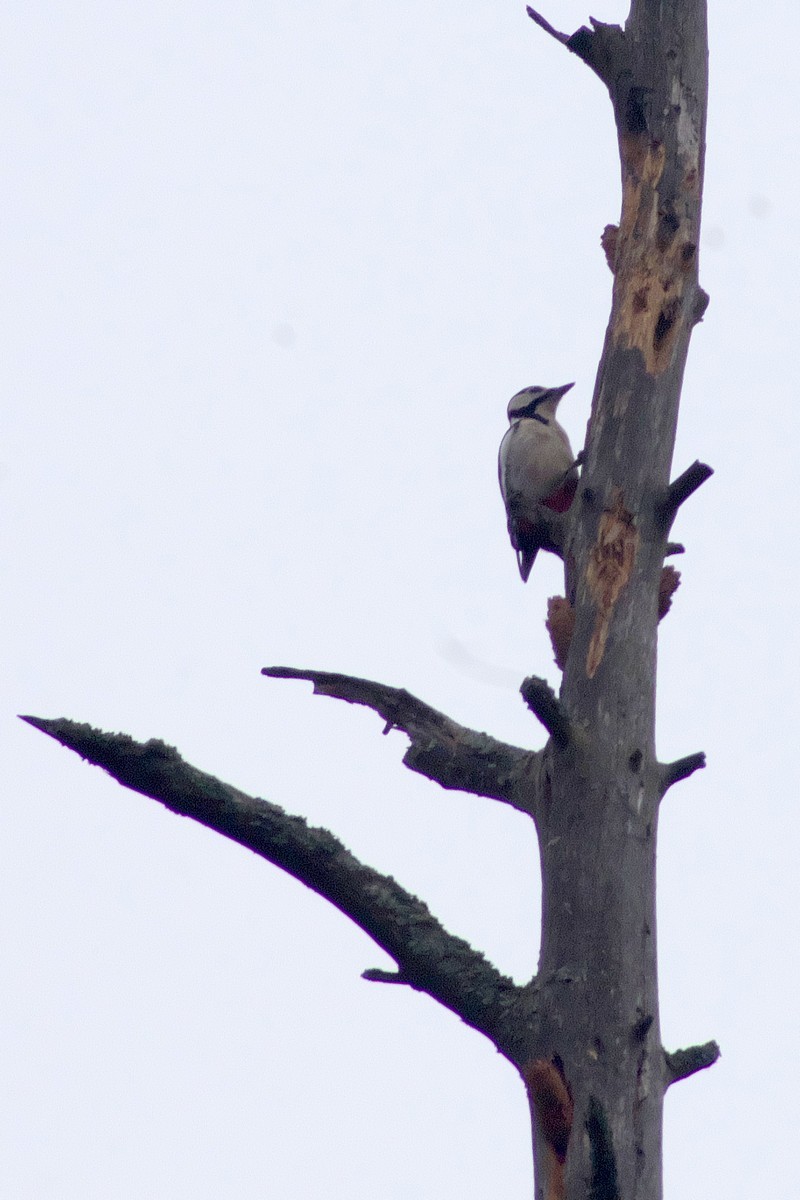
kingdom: Animalia
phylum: Chordata
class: Aves
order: Piciformes
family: Picidae
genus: Dendrocopos
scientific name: Dendrocopos major
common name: Great spotted woodpecker
